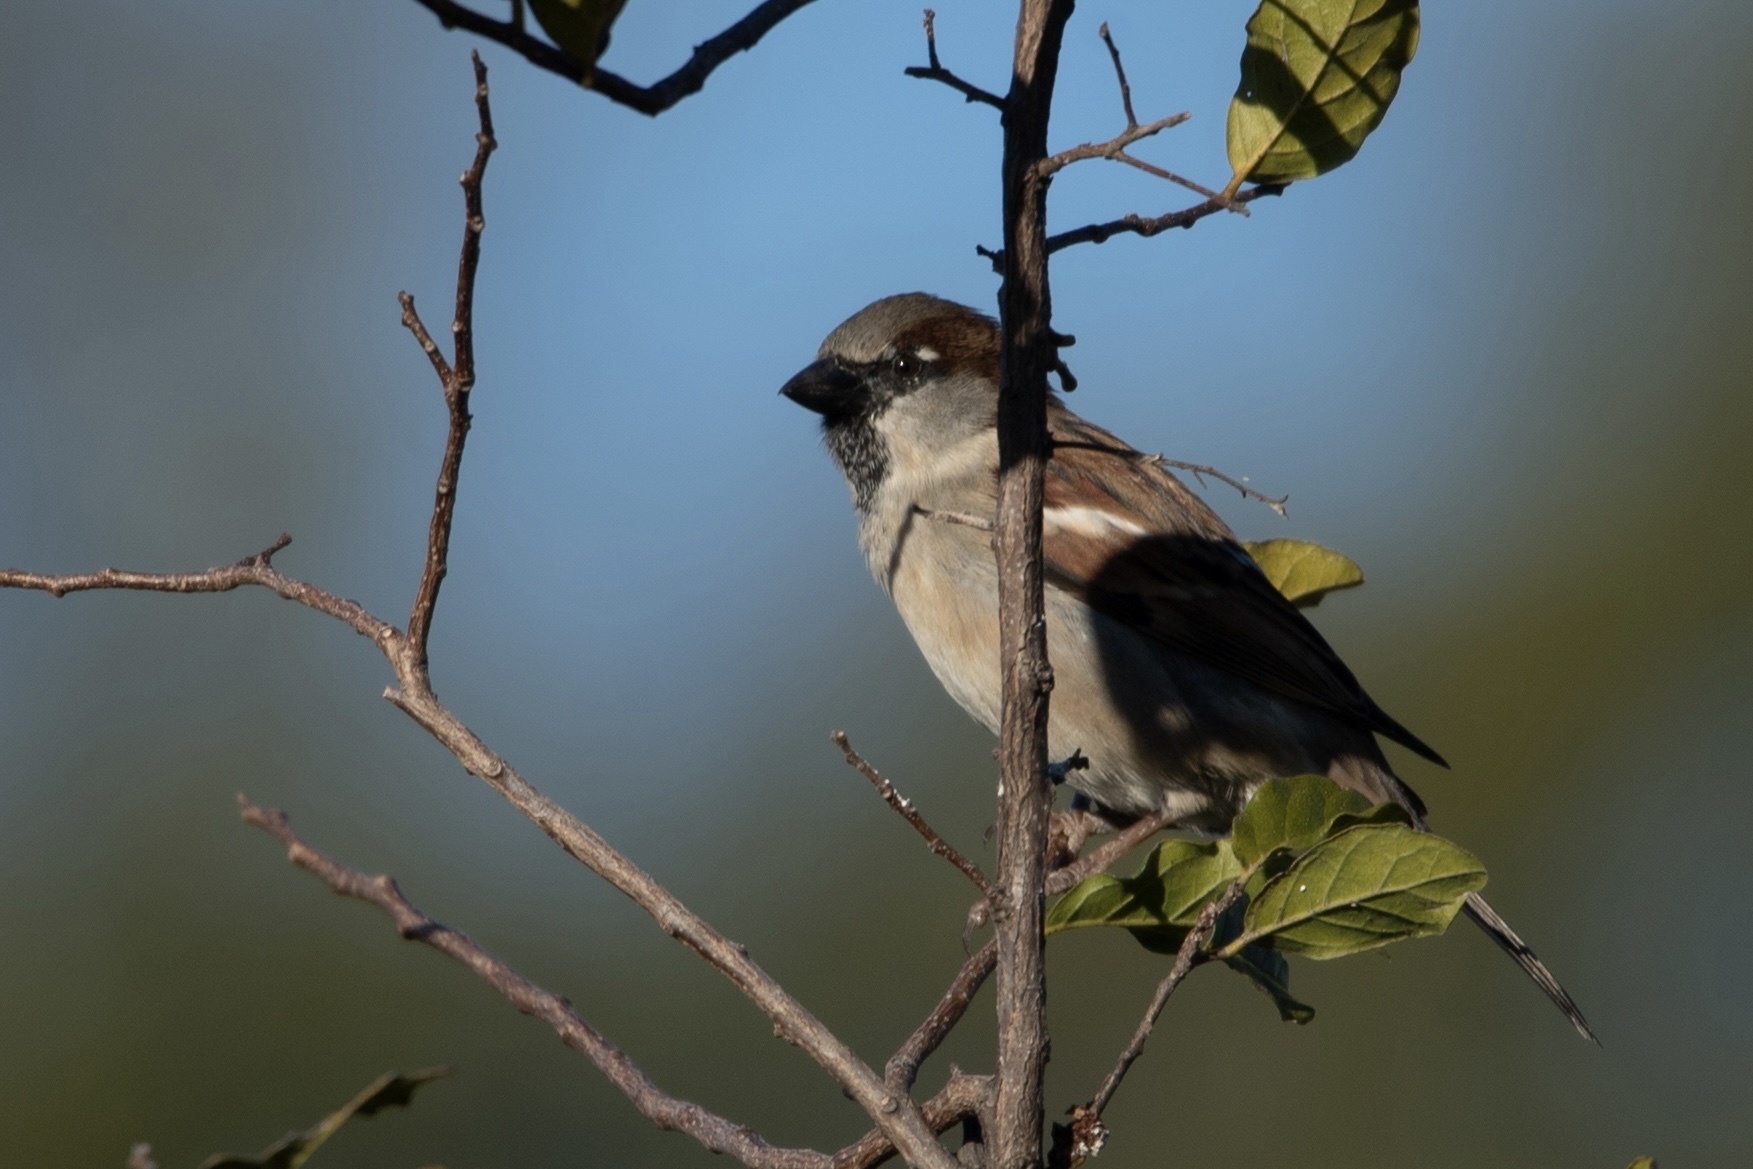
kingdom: Animalia
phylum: Chordata
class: Aves
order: Passeriformes
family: Passeridae
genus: Passer
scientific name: Passer domesticus
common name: House sparrow
